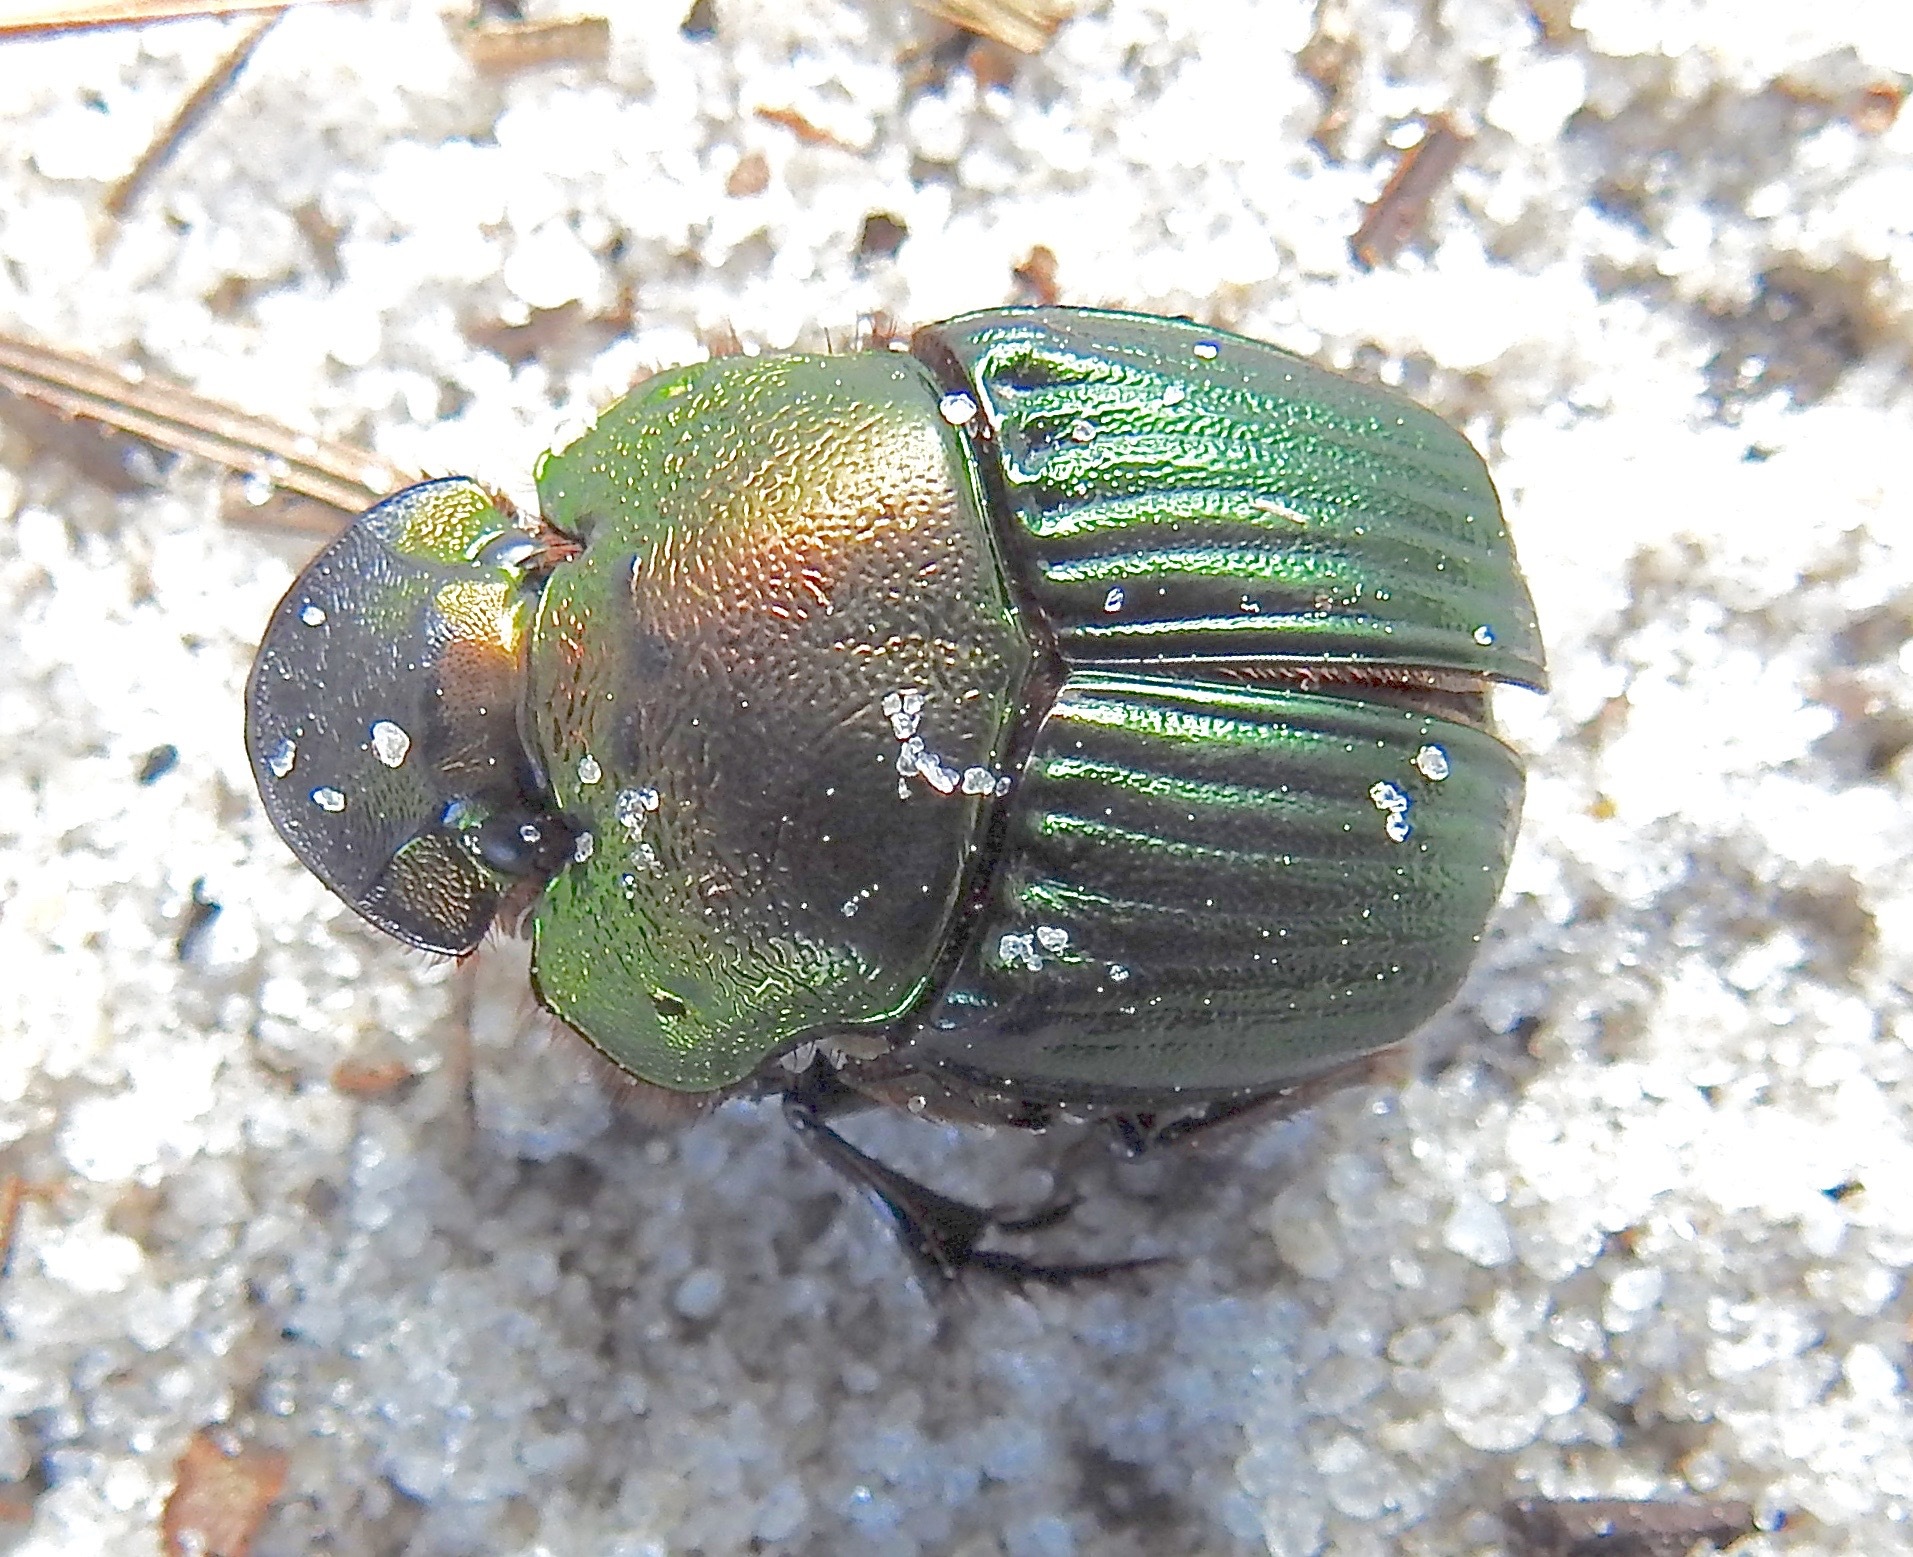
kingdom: Animalia
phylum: Arthropoda
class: Insecta
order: Coleoptera
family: Scarabaeidae
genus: Phanaeus
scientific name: Phanaeus igneus
